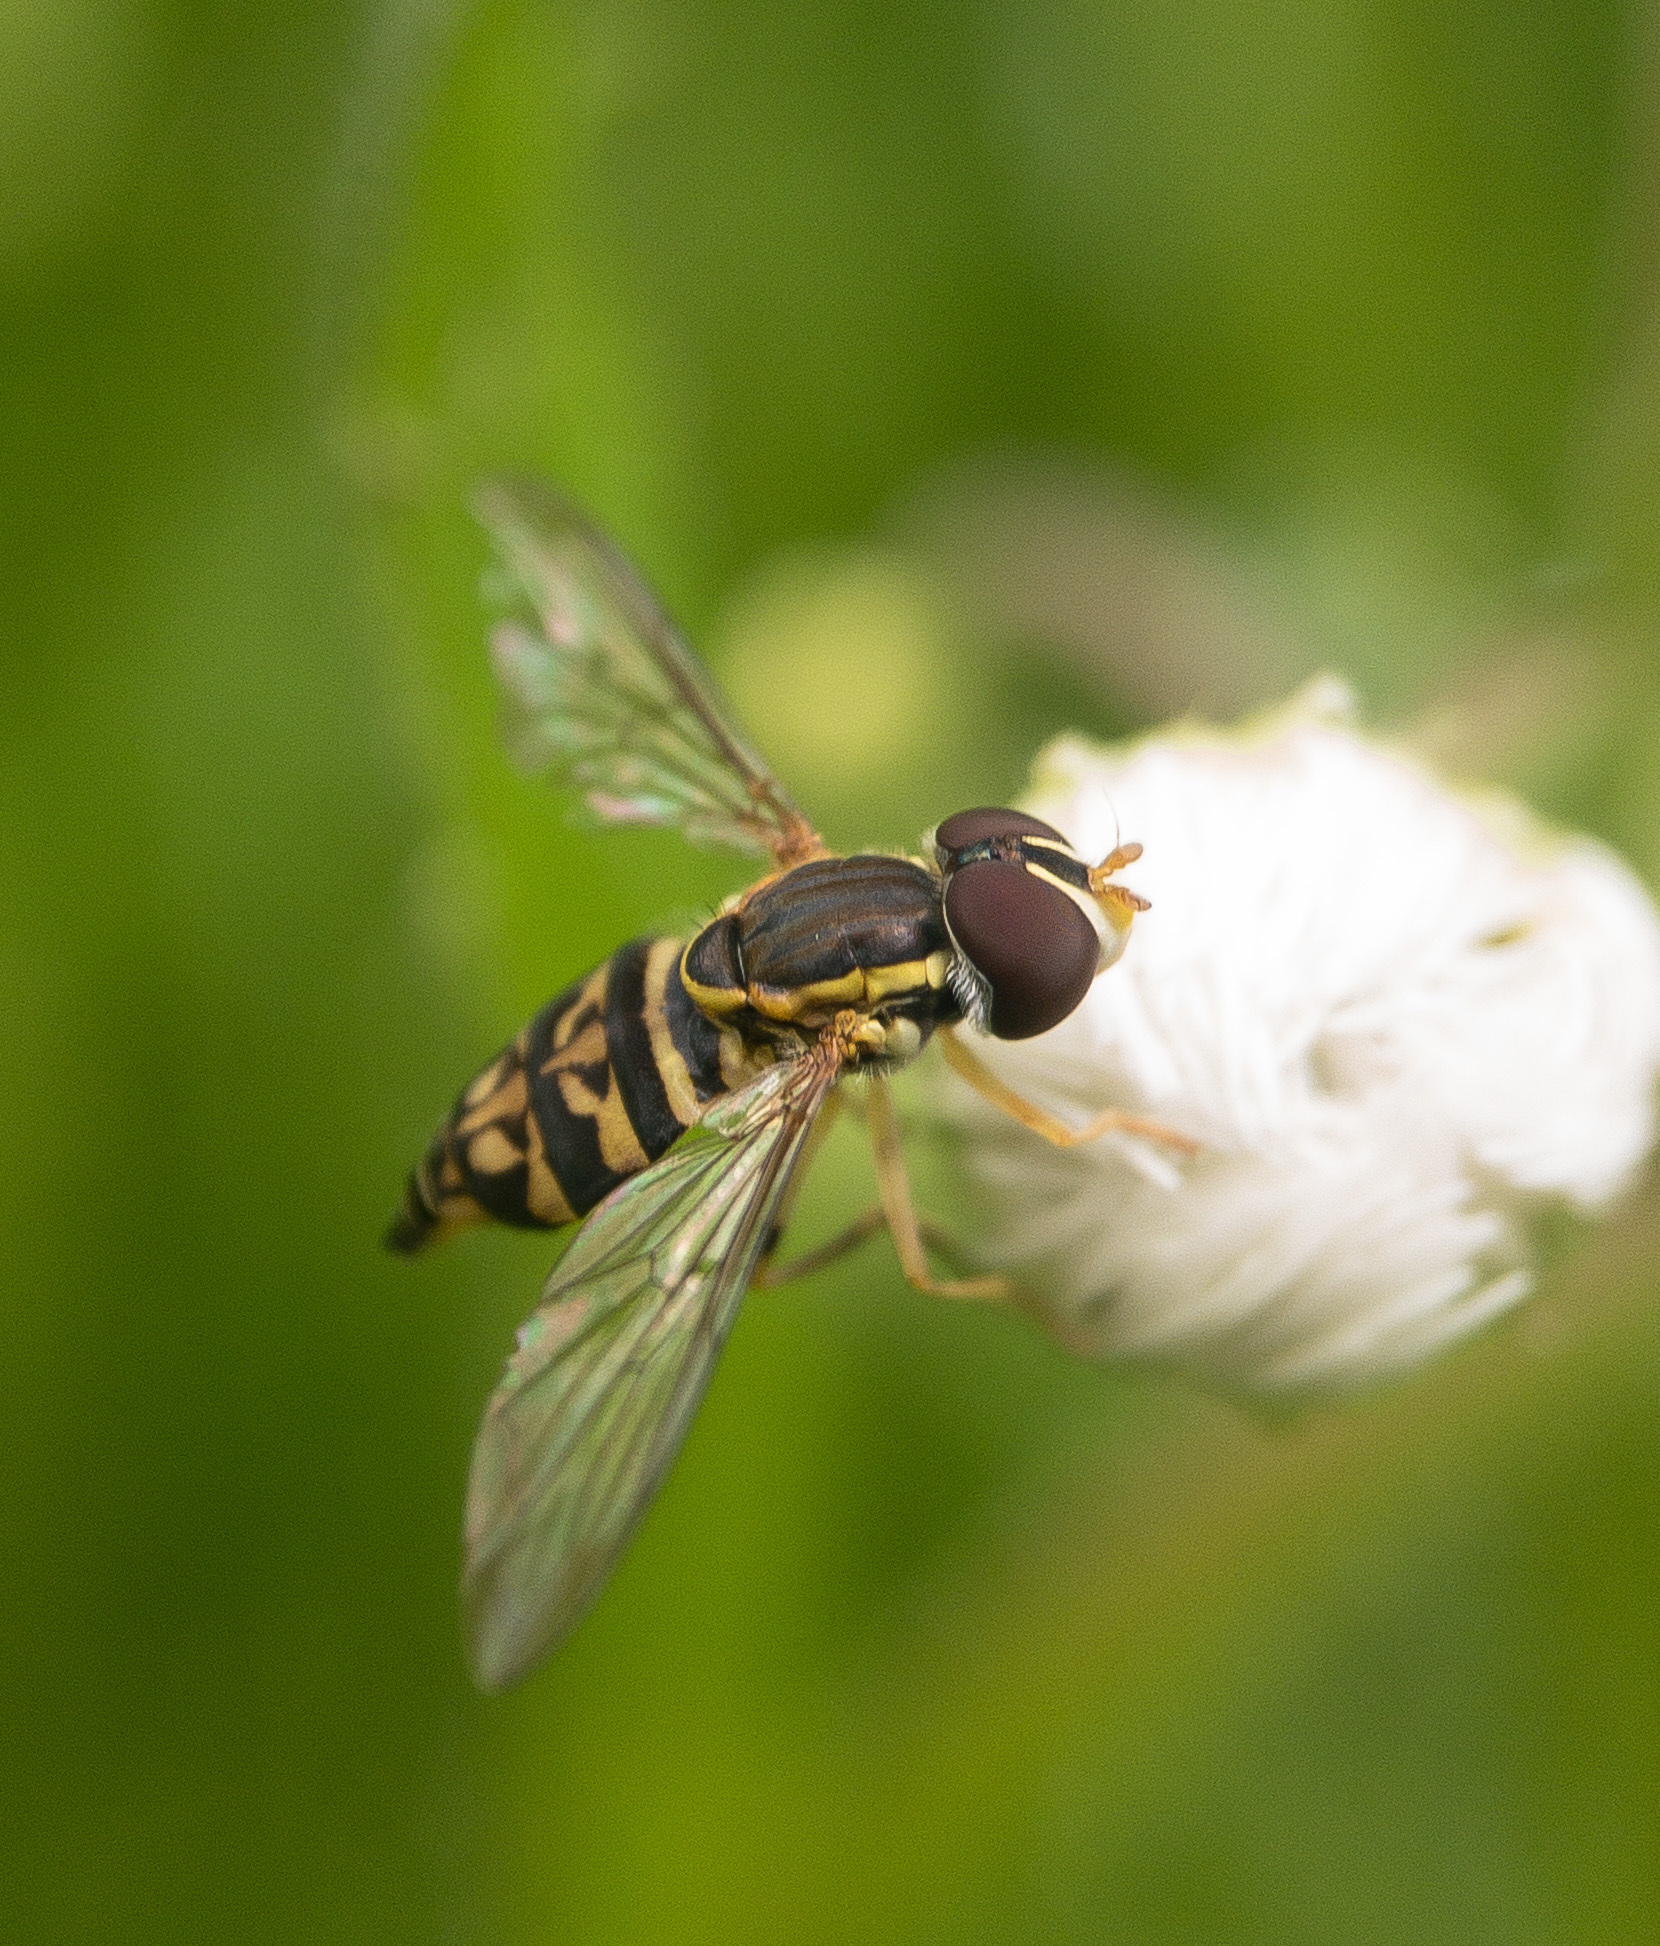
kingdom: Animalia
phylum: Arthropoda
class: Insecta
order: Diptera
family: Syrphidae
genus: Toxomerus
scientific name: Toxomerus geminatus
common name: Eastern calligrapher
